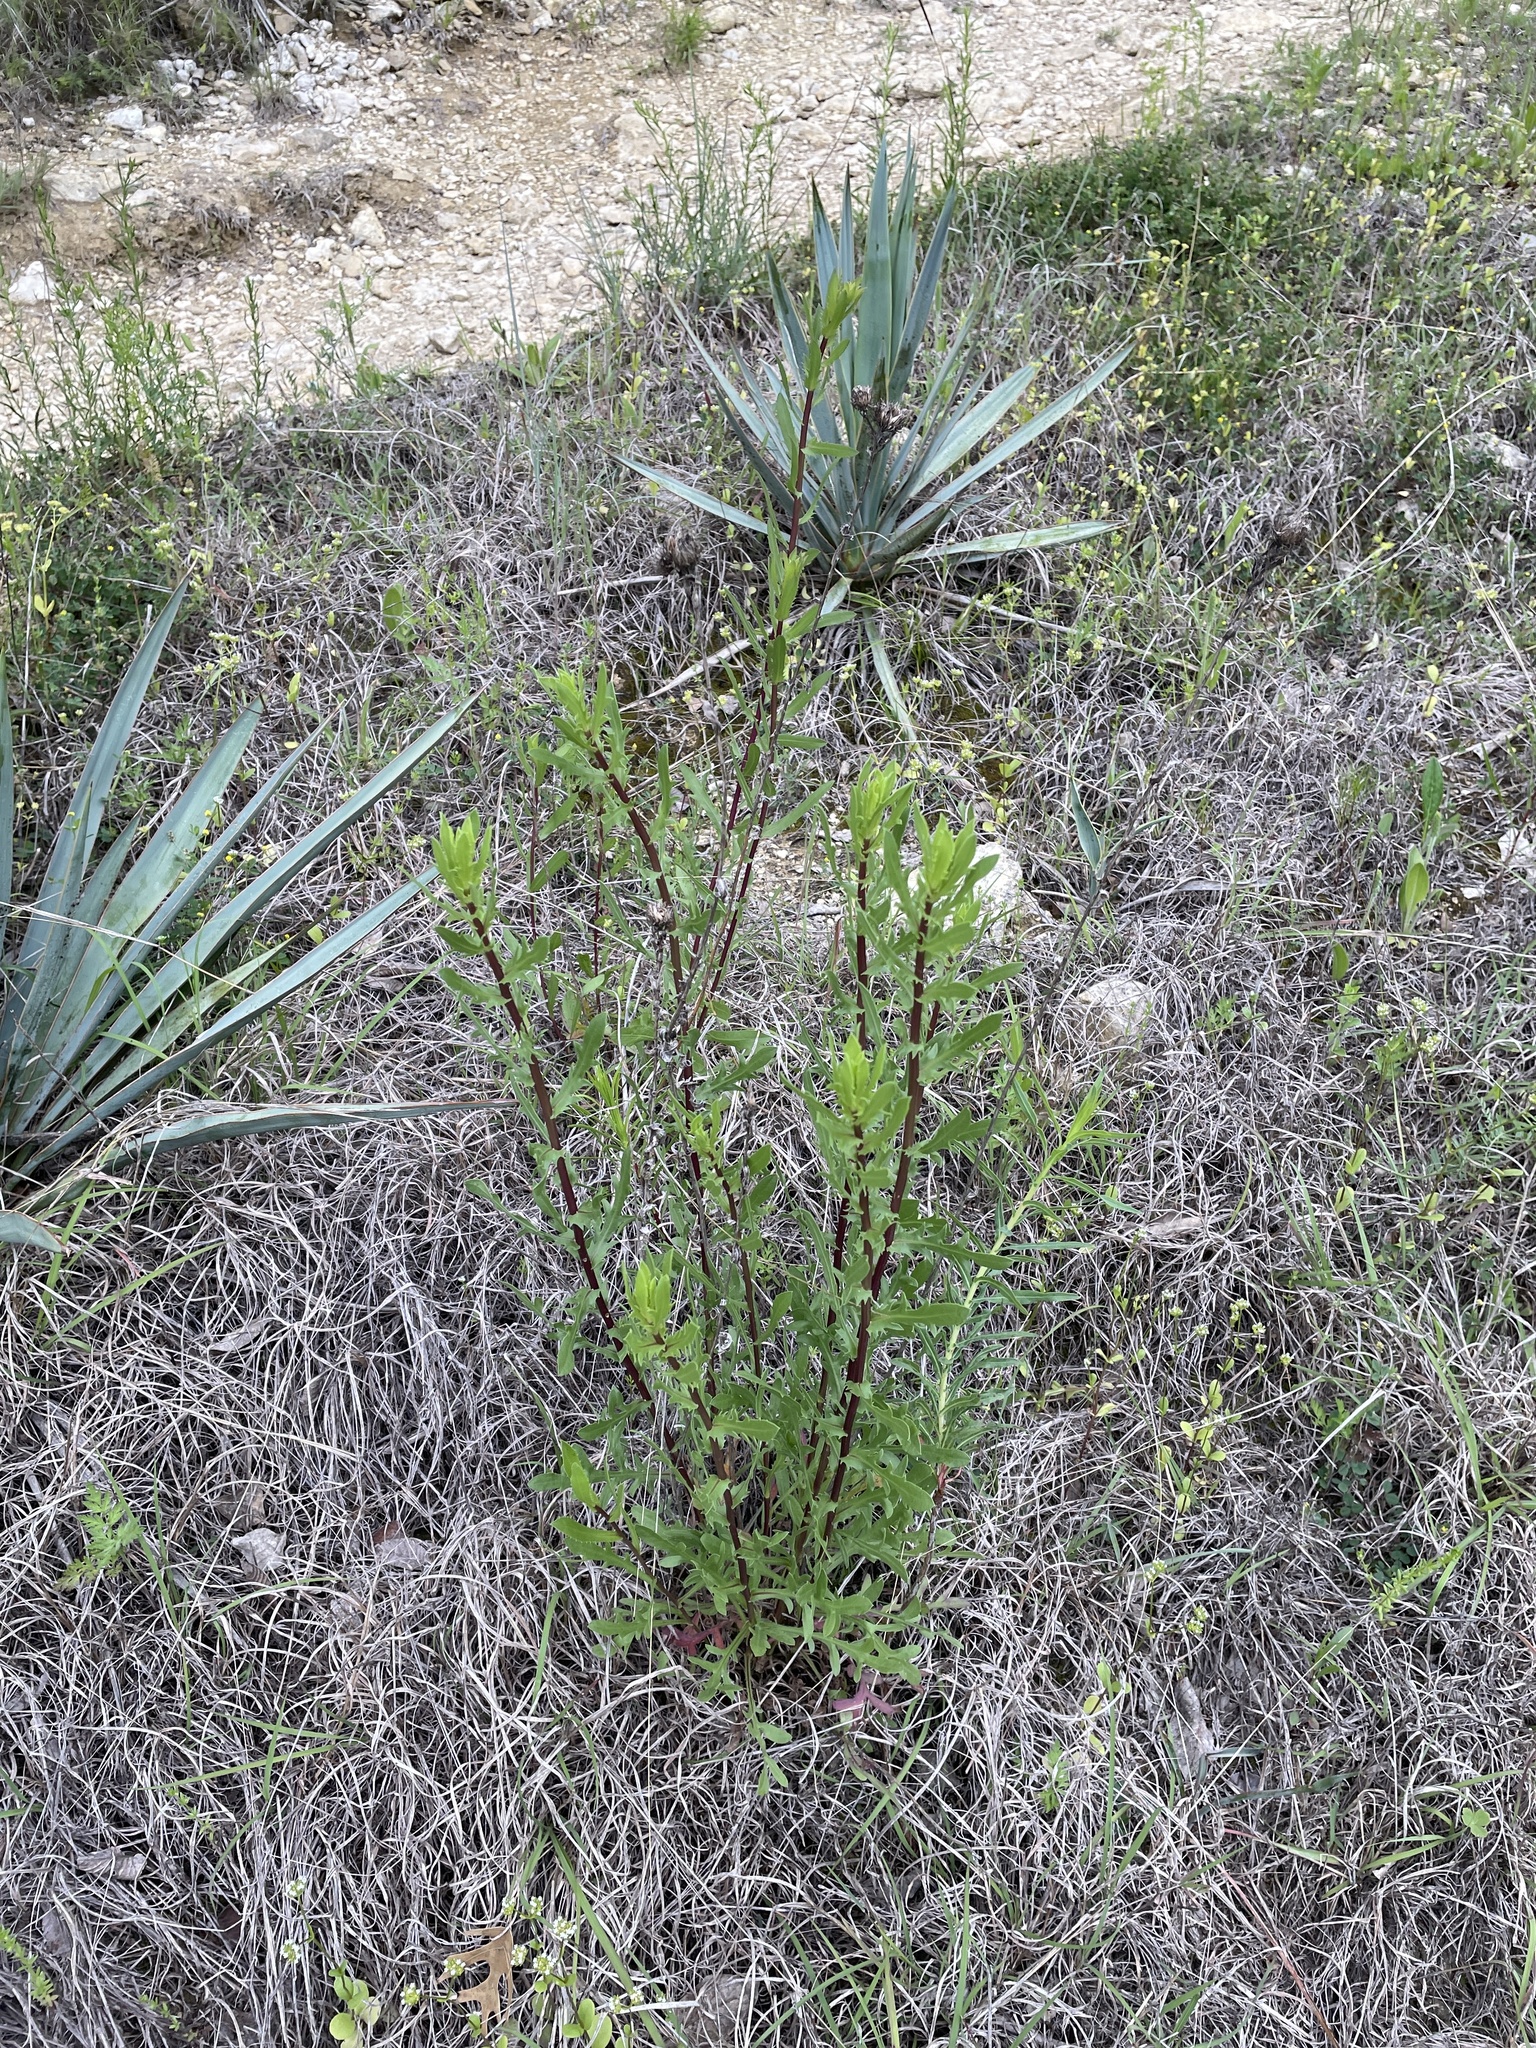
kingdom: Plantae
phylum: Tracheophyta
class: Magnoliopsida
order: Asterales
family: Asteraceae
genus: Grindelia
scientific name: Grindelia lanceolata
